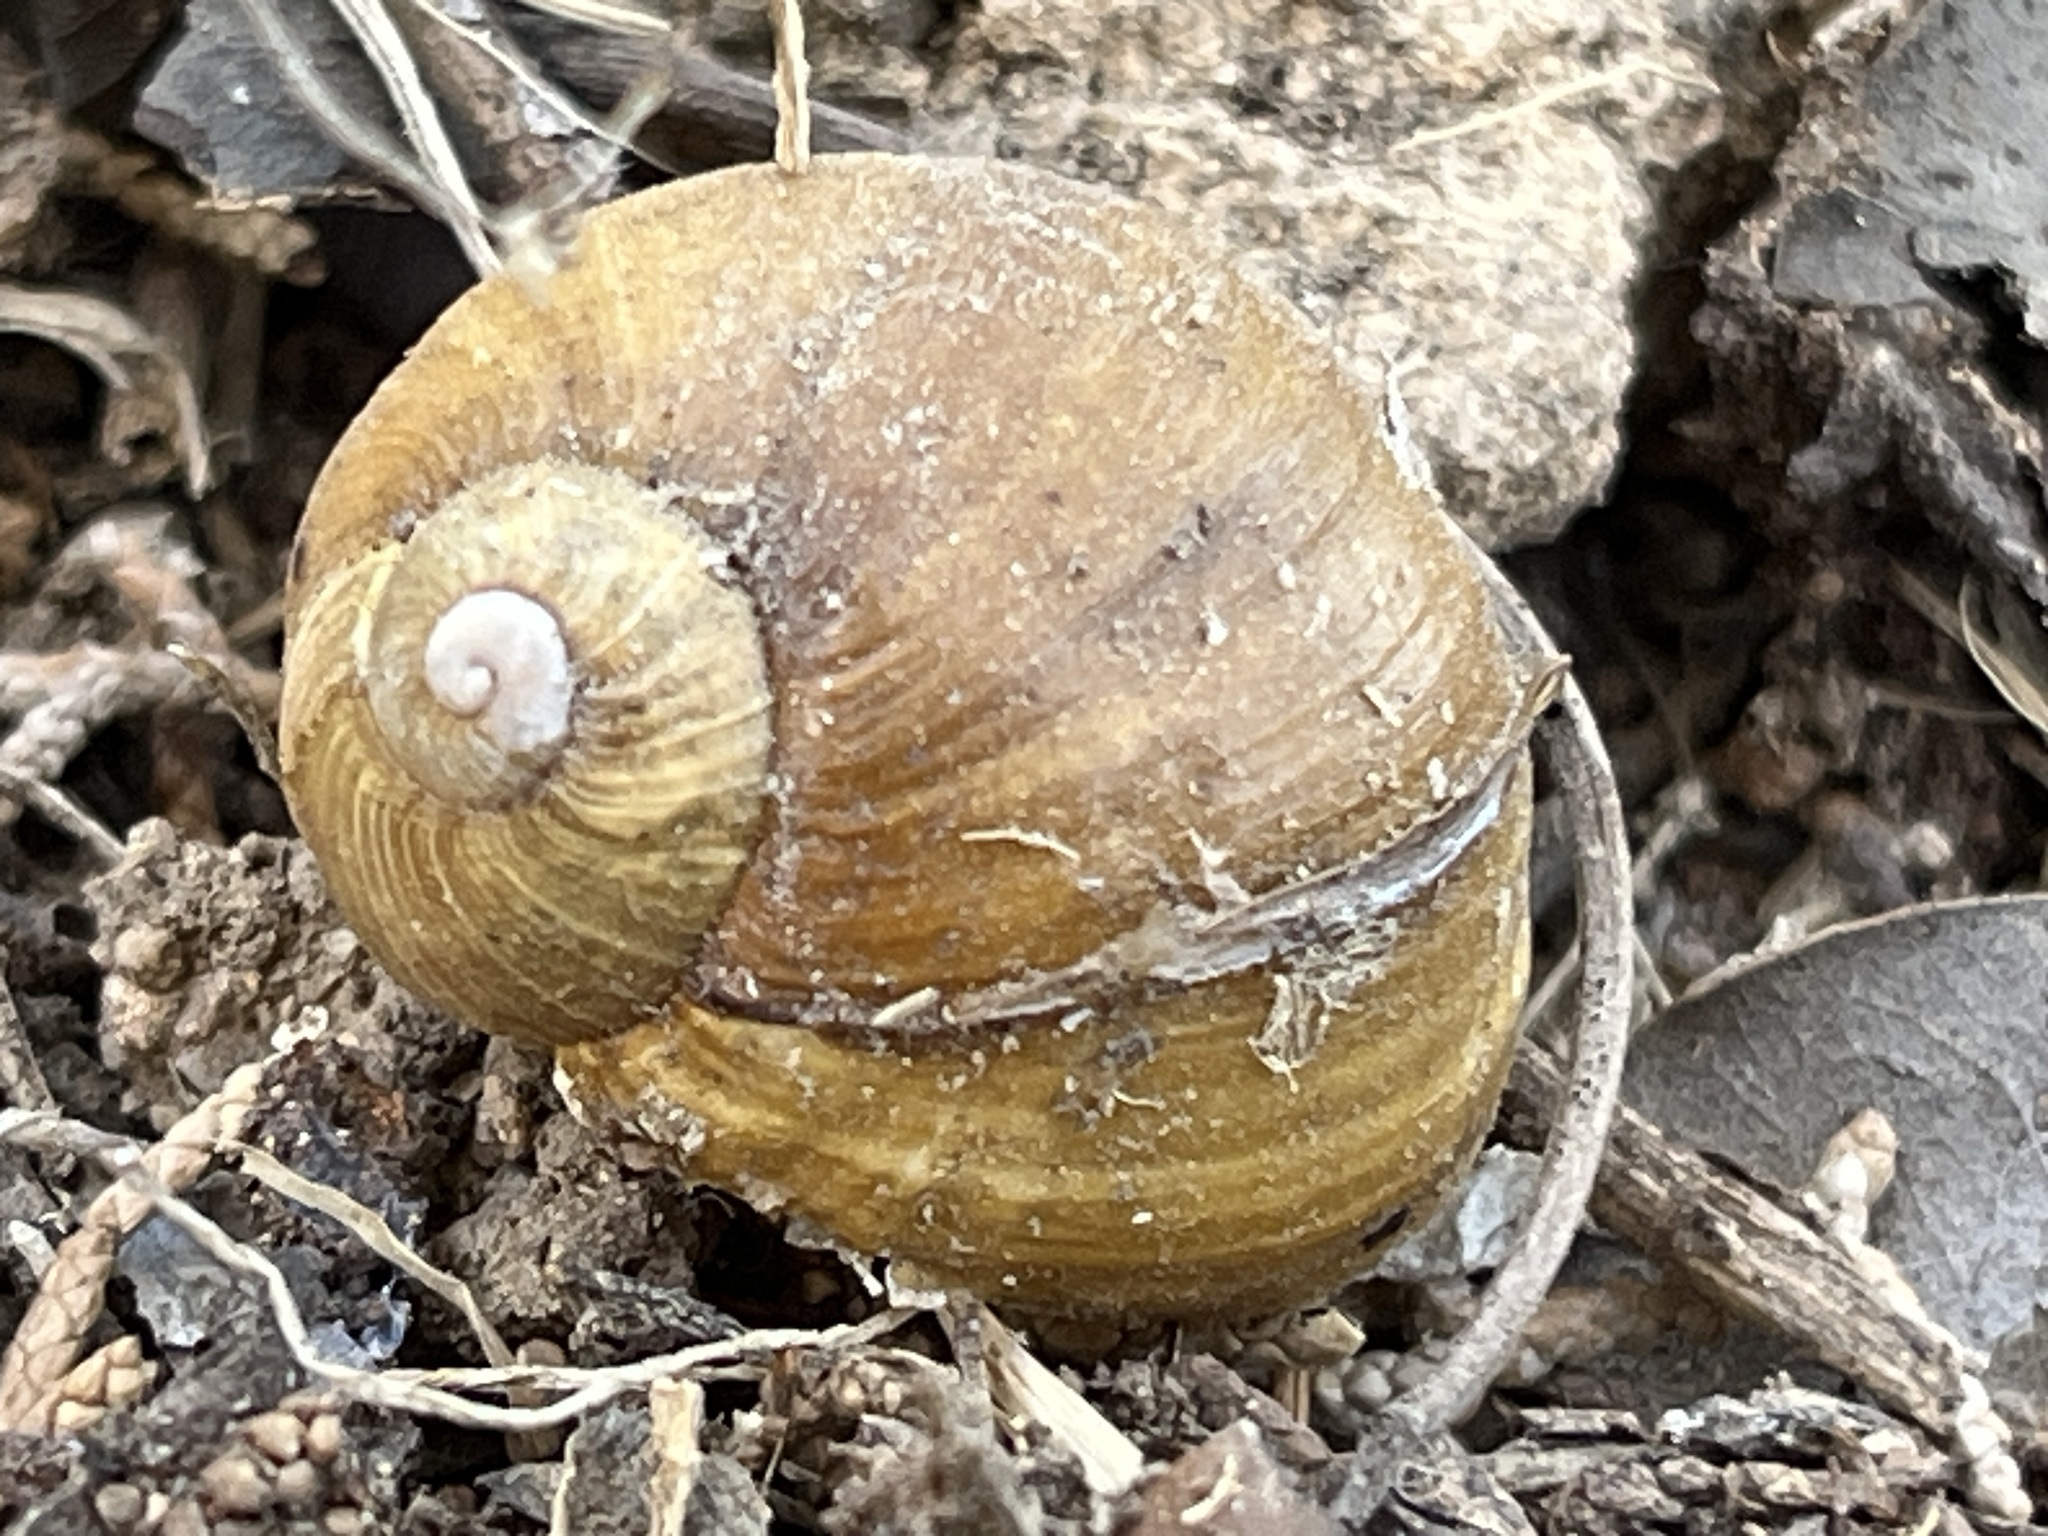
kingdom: Animalia
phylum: Mollusca
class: Gastropoda
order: Stylommatophora
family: Helicidae
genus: Cantareus
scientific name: Cantareus apertus
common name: Green gardensnail
